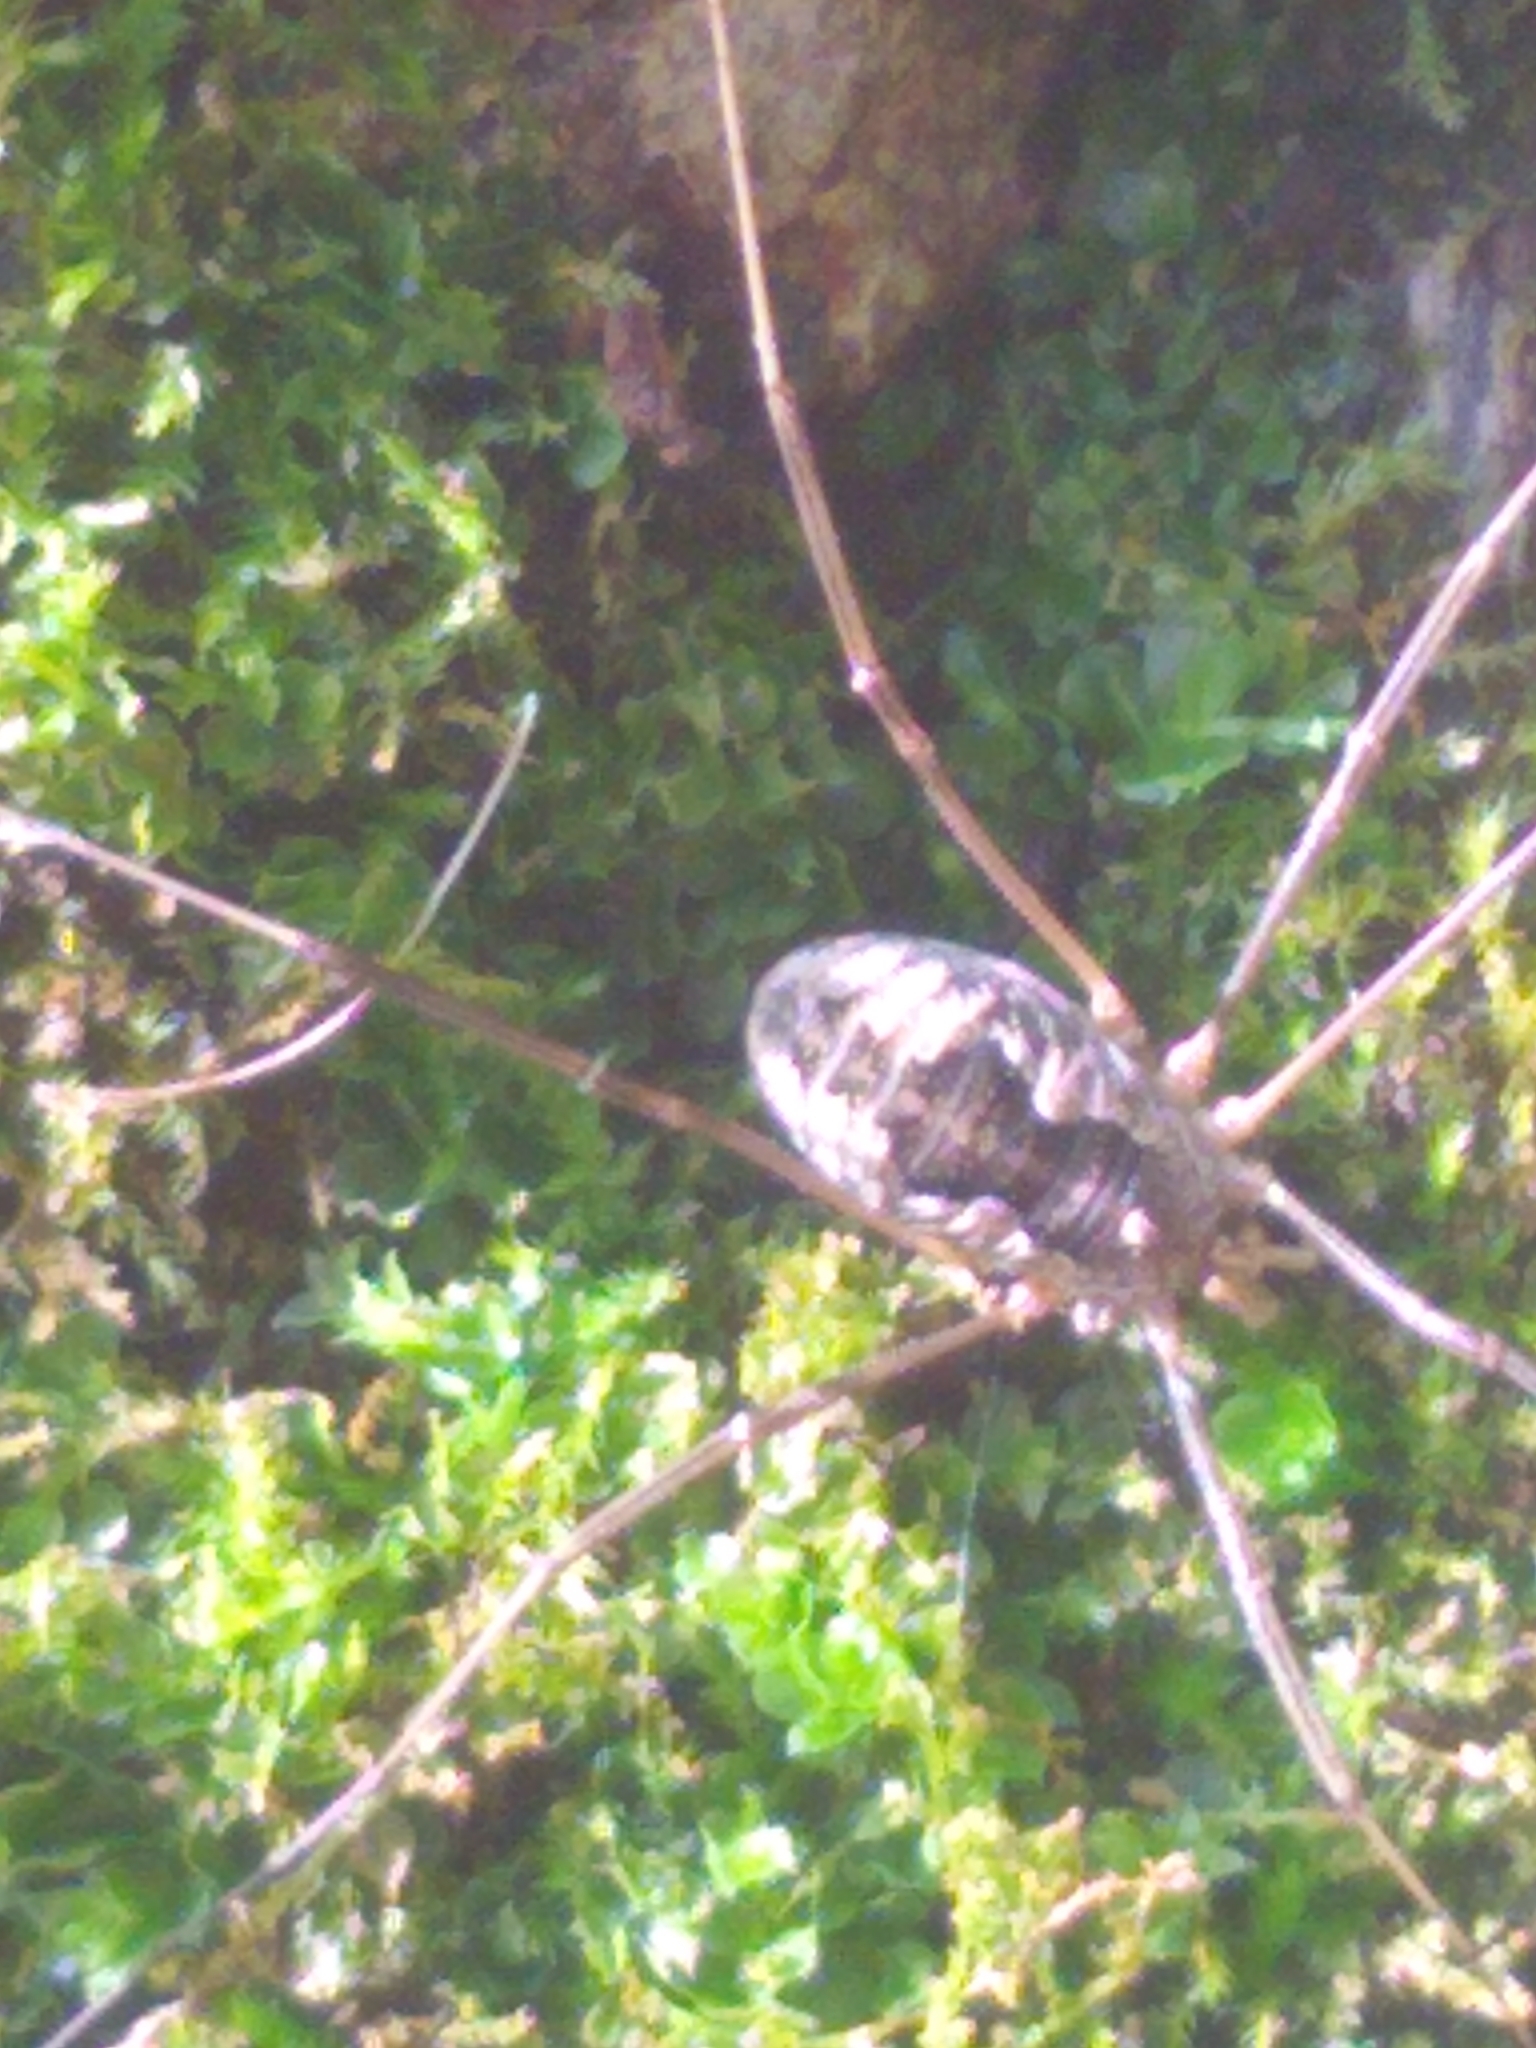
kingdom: Animalia
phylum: Arthropoda
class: Arachnida
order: Opiliones
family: Phalangiidae
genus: Phalangium
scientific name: Phalangium opilio
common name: Daddy longleg
